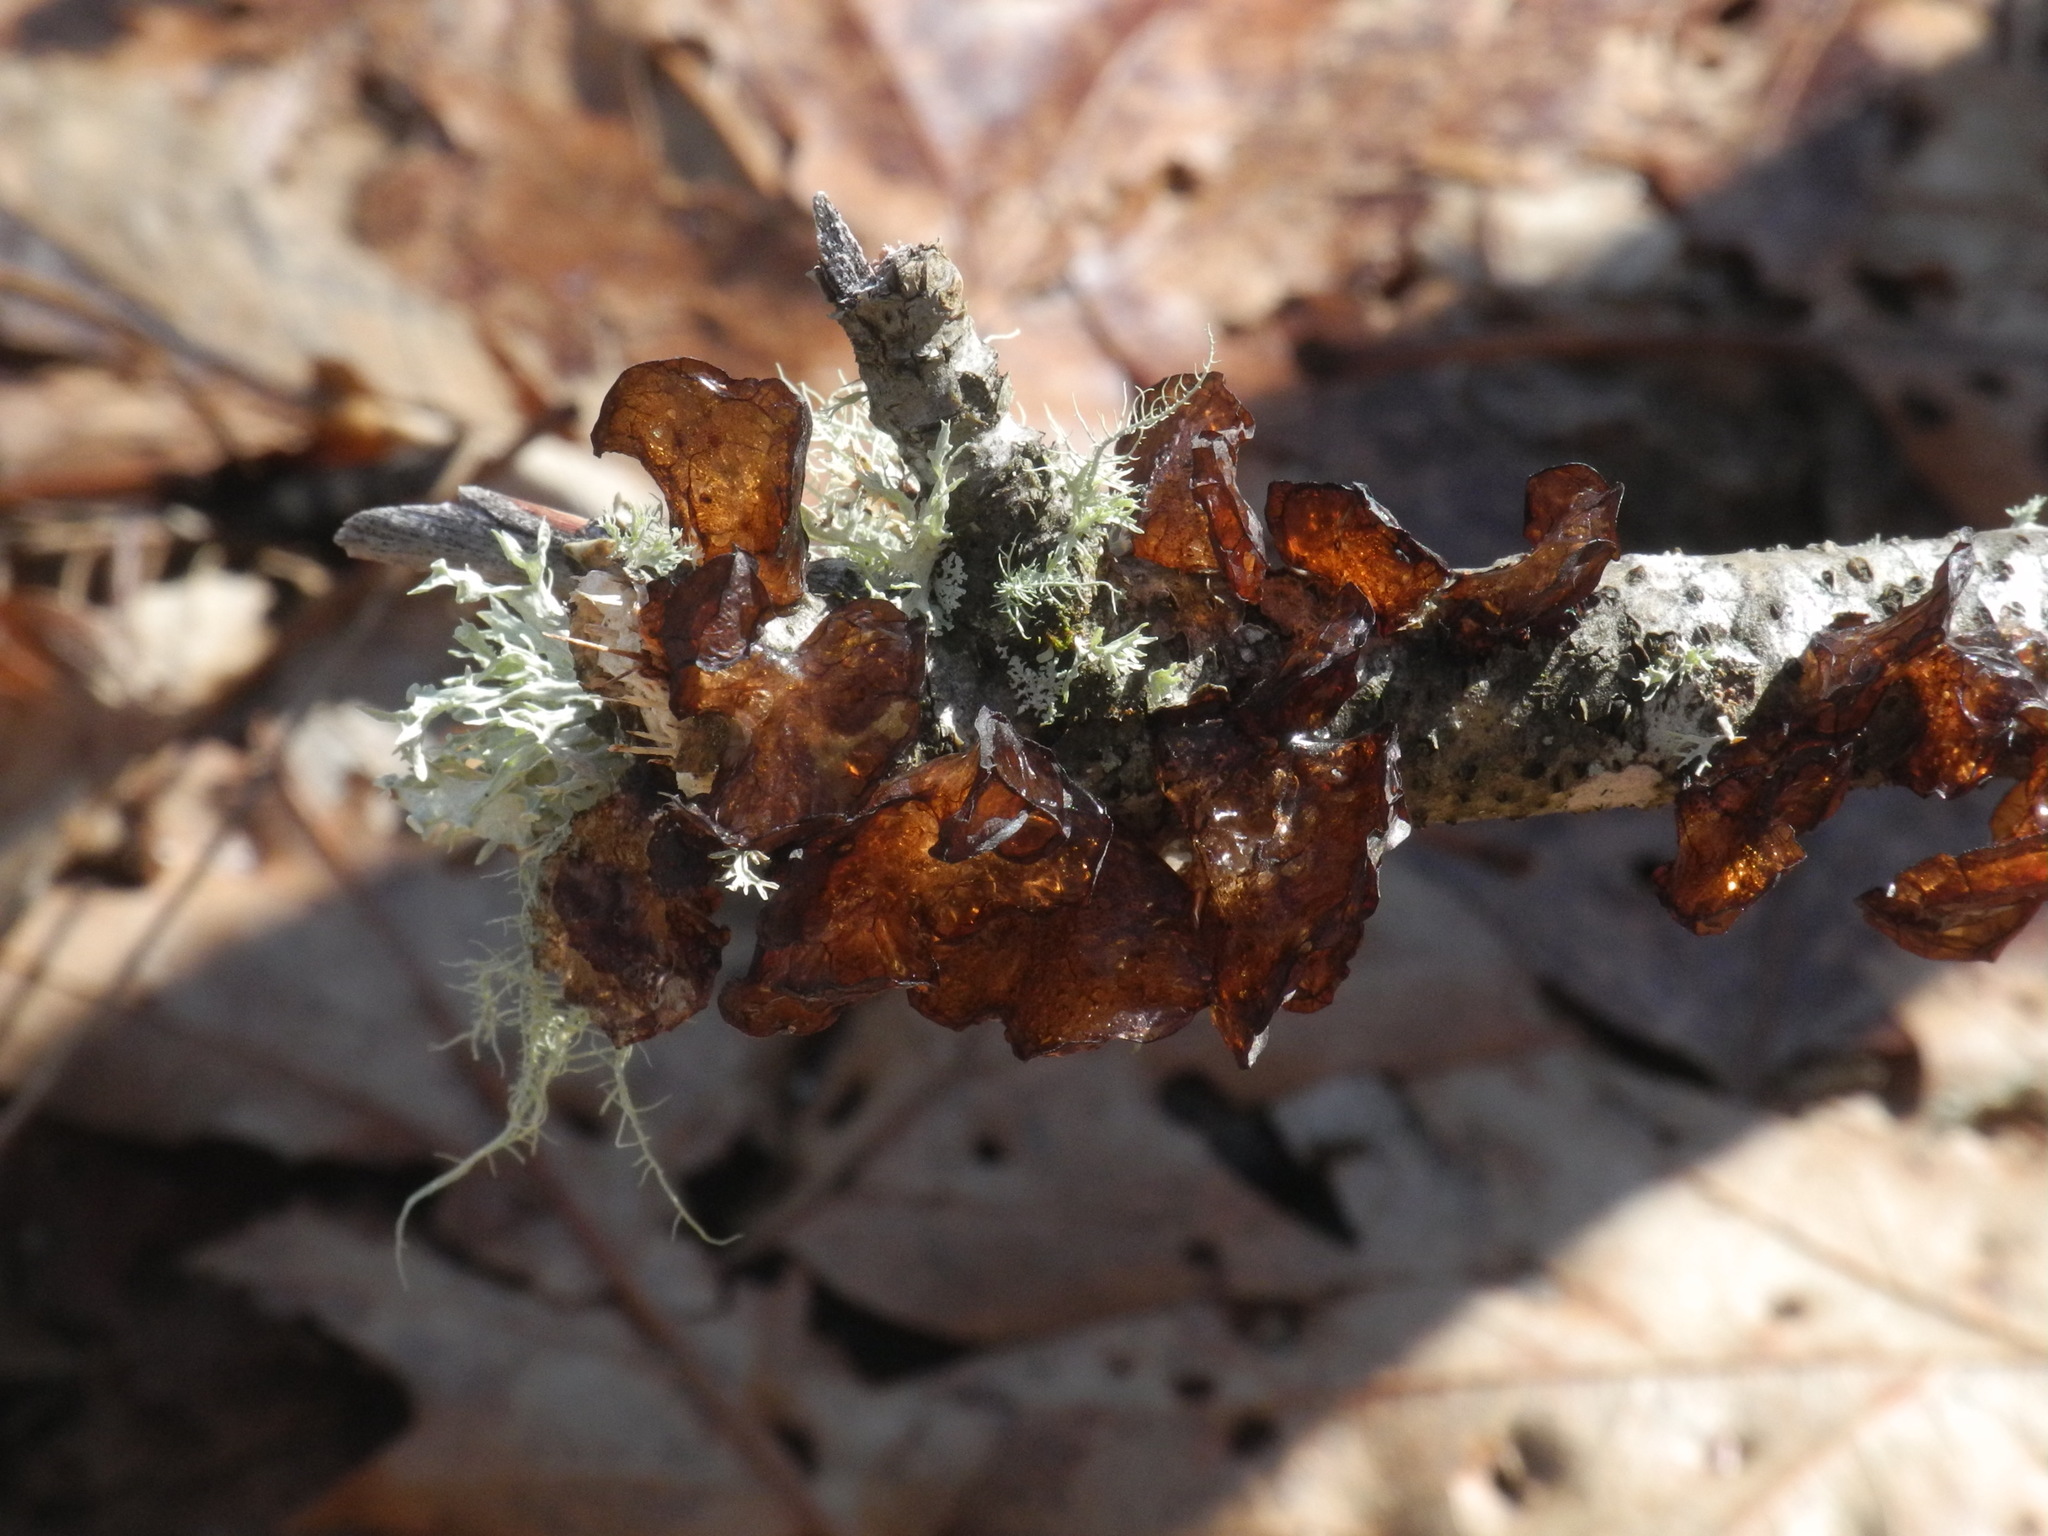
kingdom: Fungi
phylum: Basidiomycota
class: Agaricomycetes
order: Auriculariales
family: Auriculariaceae
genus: Exidia
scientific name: Exidia
